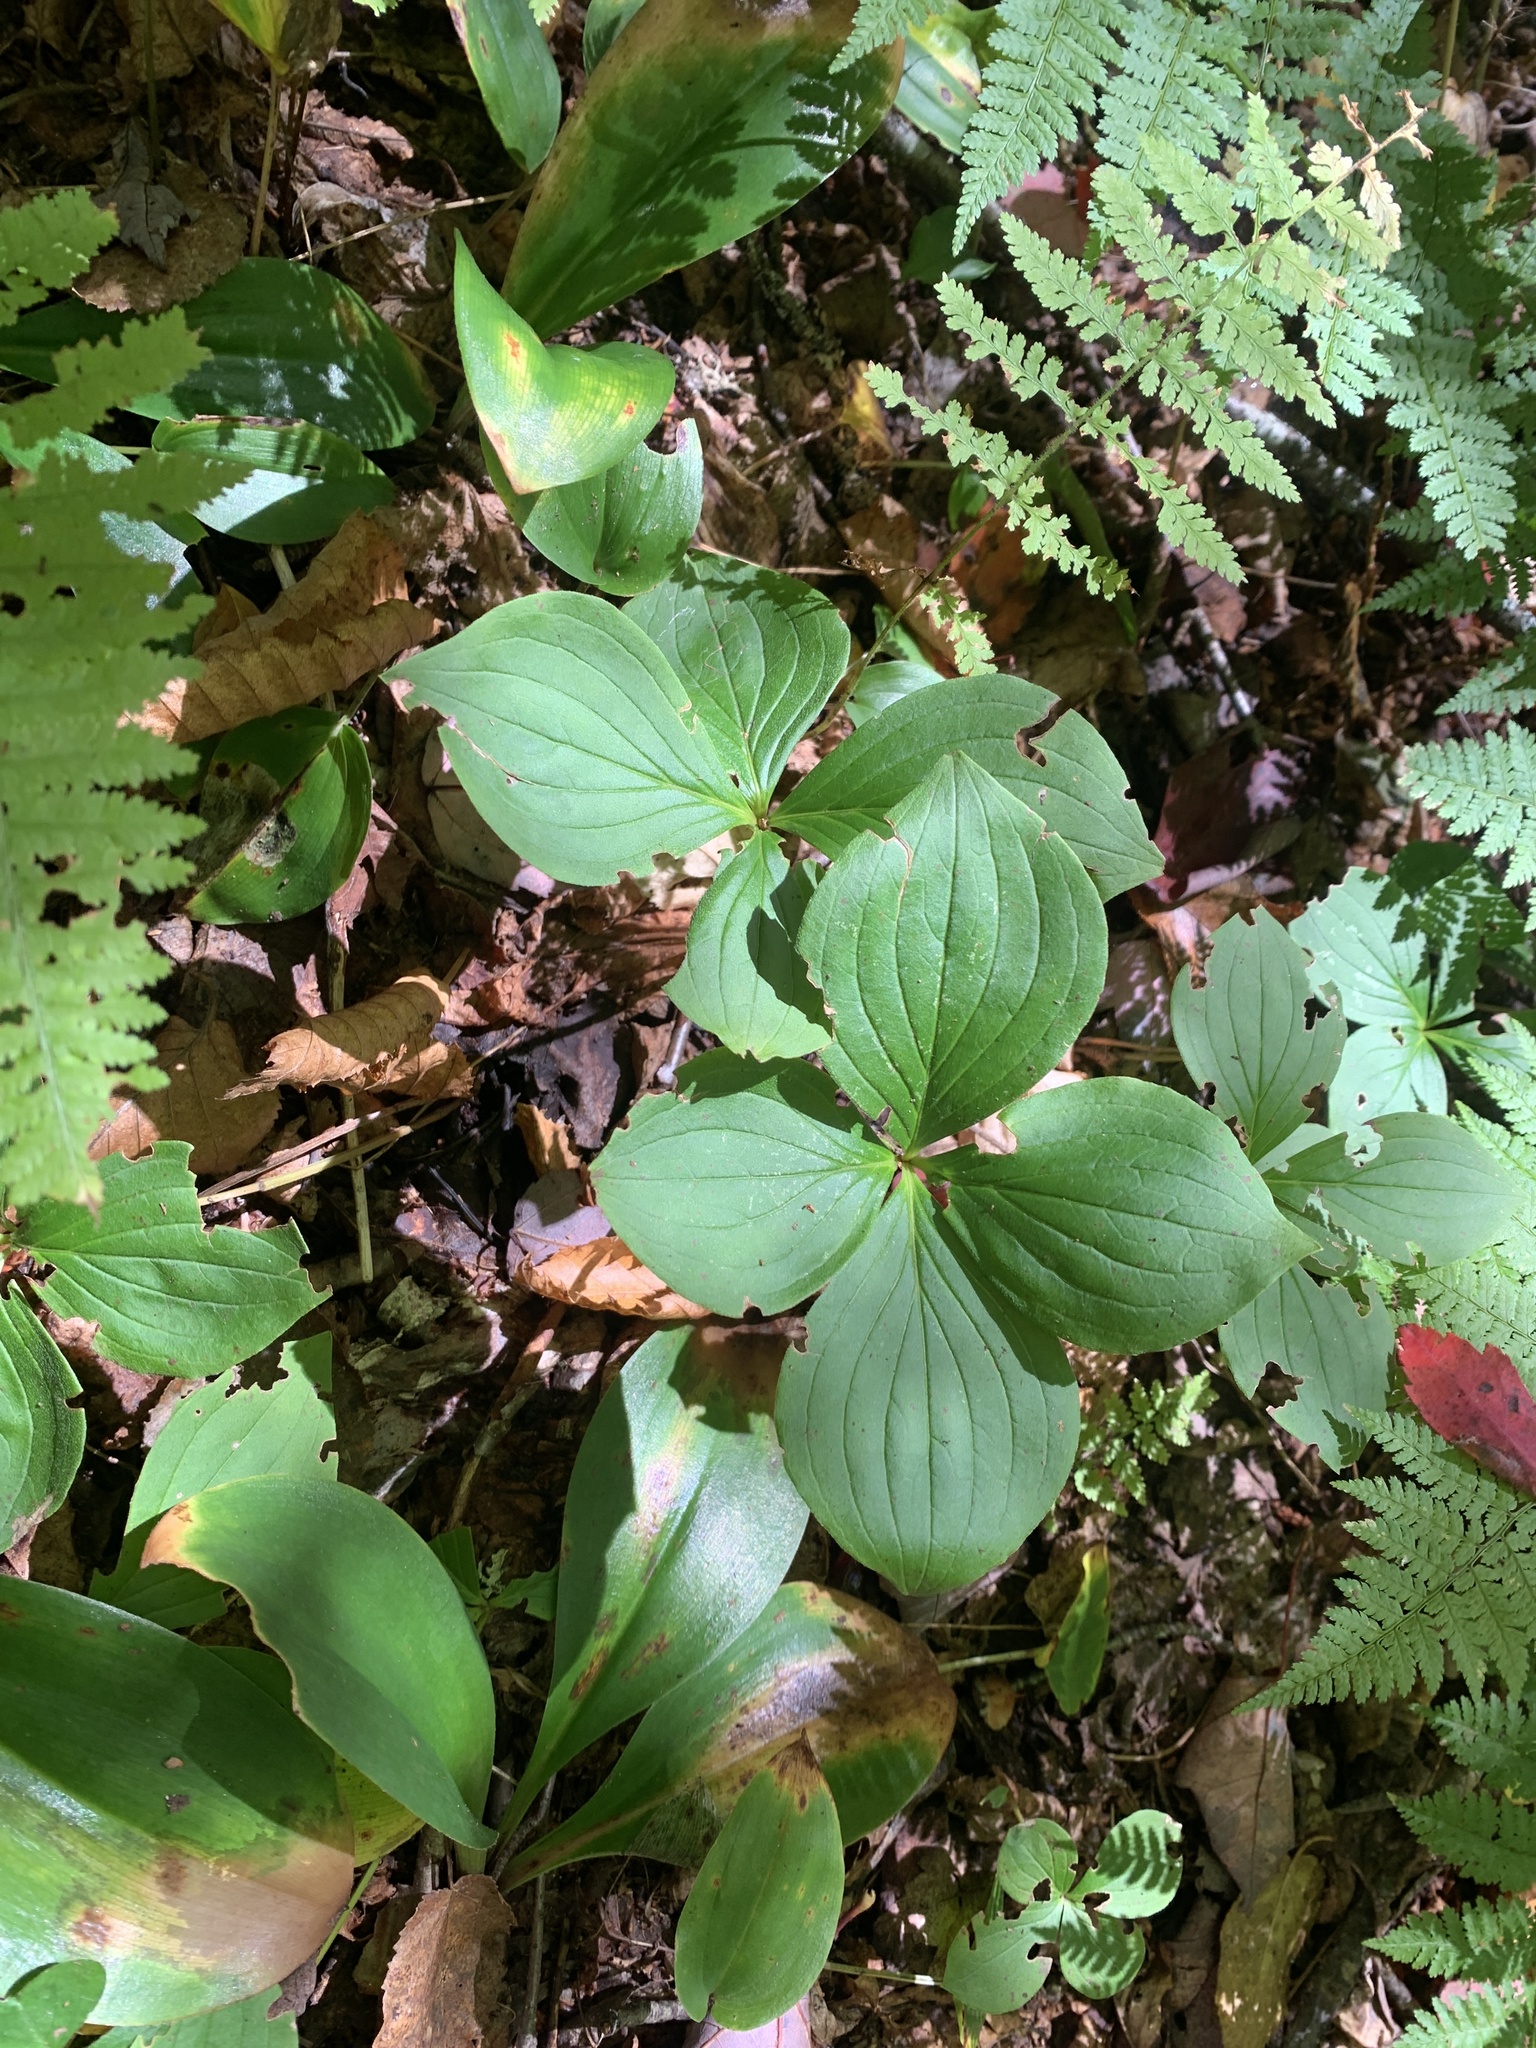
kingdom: Plantae
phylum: Tracheophyta
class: Magnoliopsida
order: Cornales
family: Cornaceae
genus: Cornus
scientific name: Cornus canadensis
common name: Creeping dogwood
